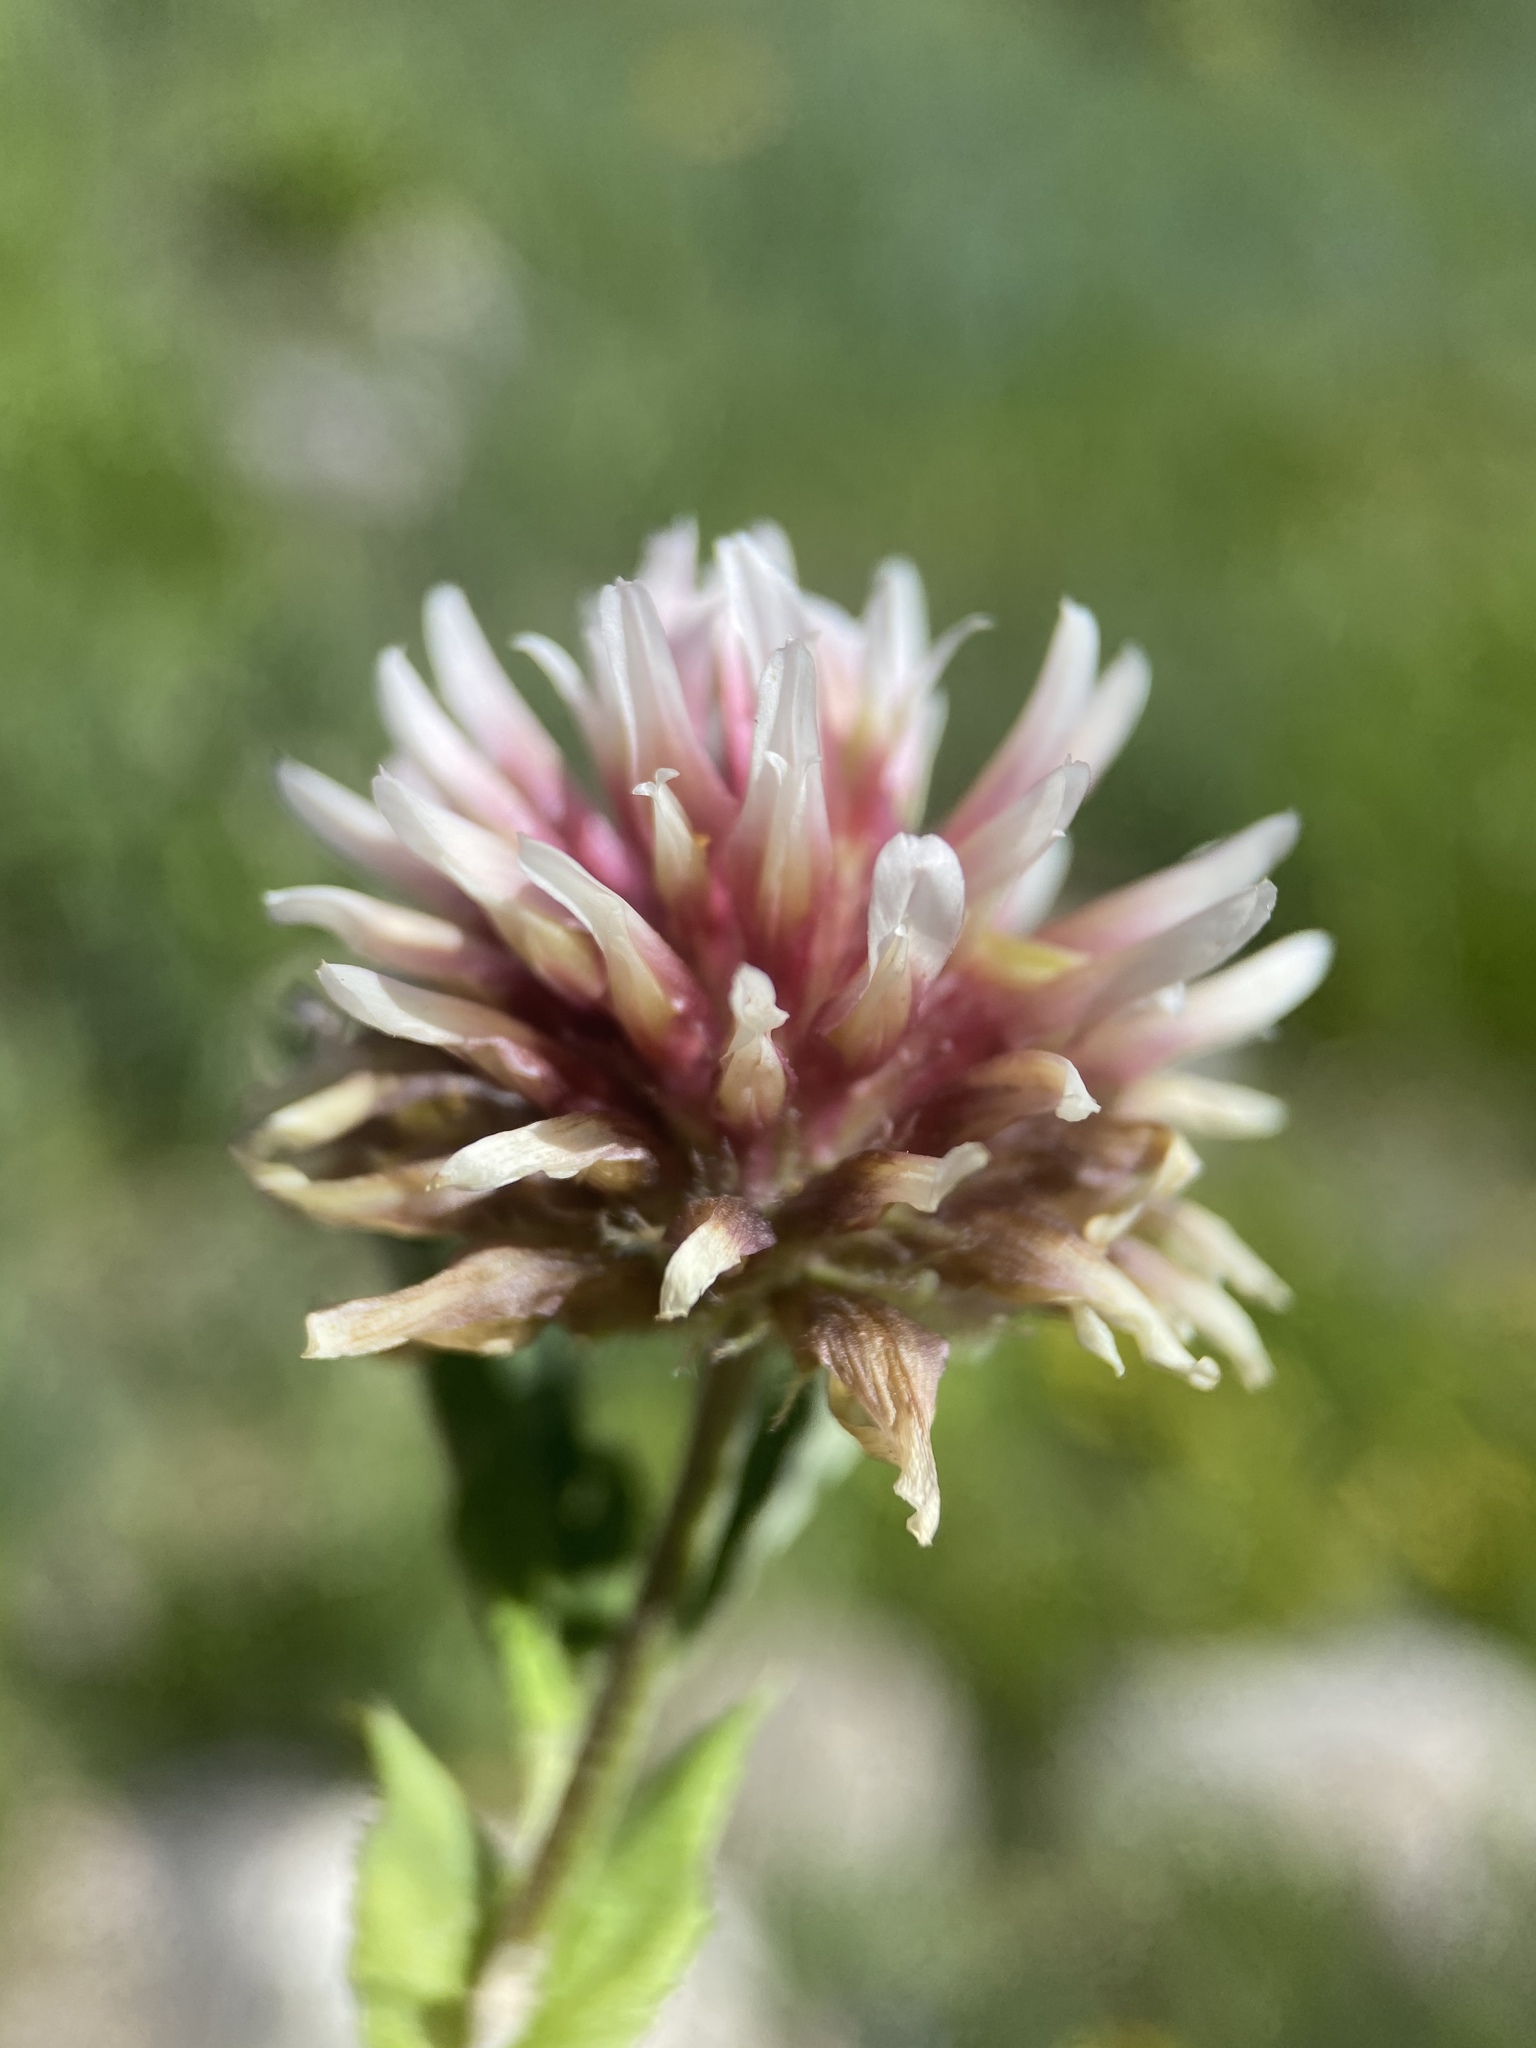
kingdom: Plantae
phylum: Tracheophyta
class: Magnoliopsida
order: Fabales
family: Fabaceae
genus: Trifolium
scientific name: Trifolium longipes
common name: Long-stalk clover
